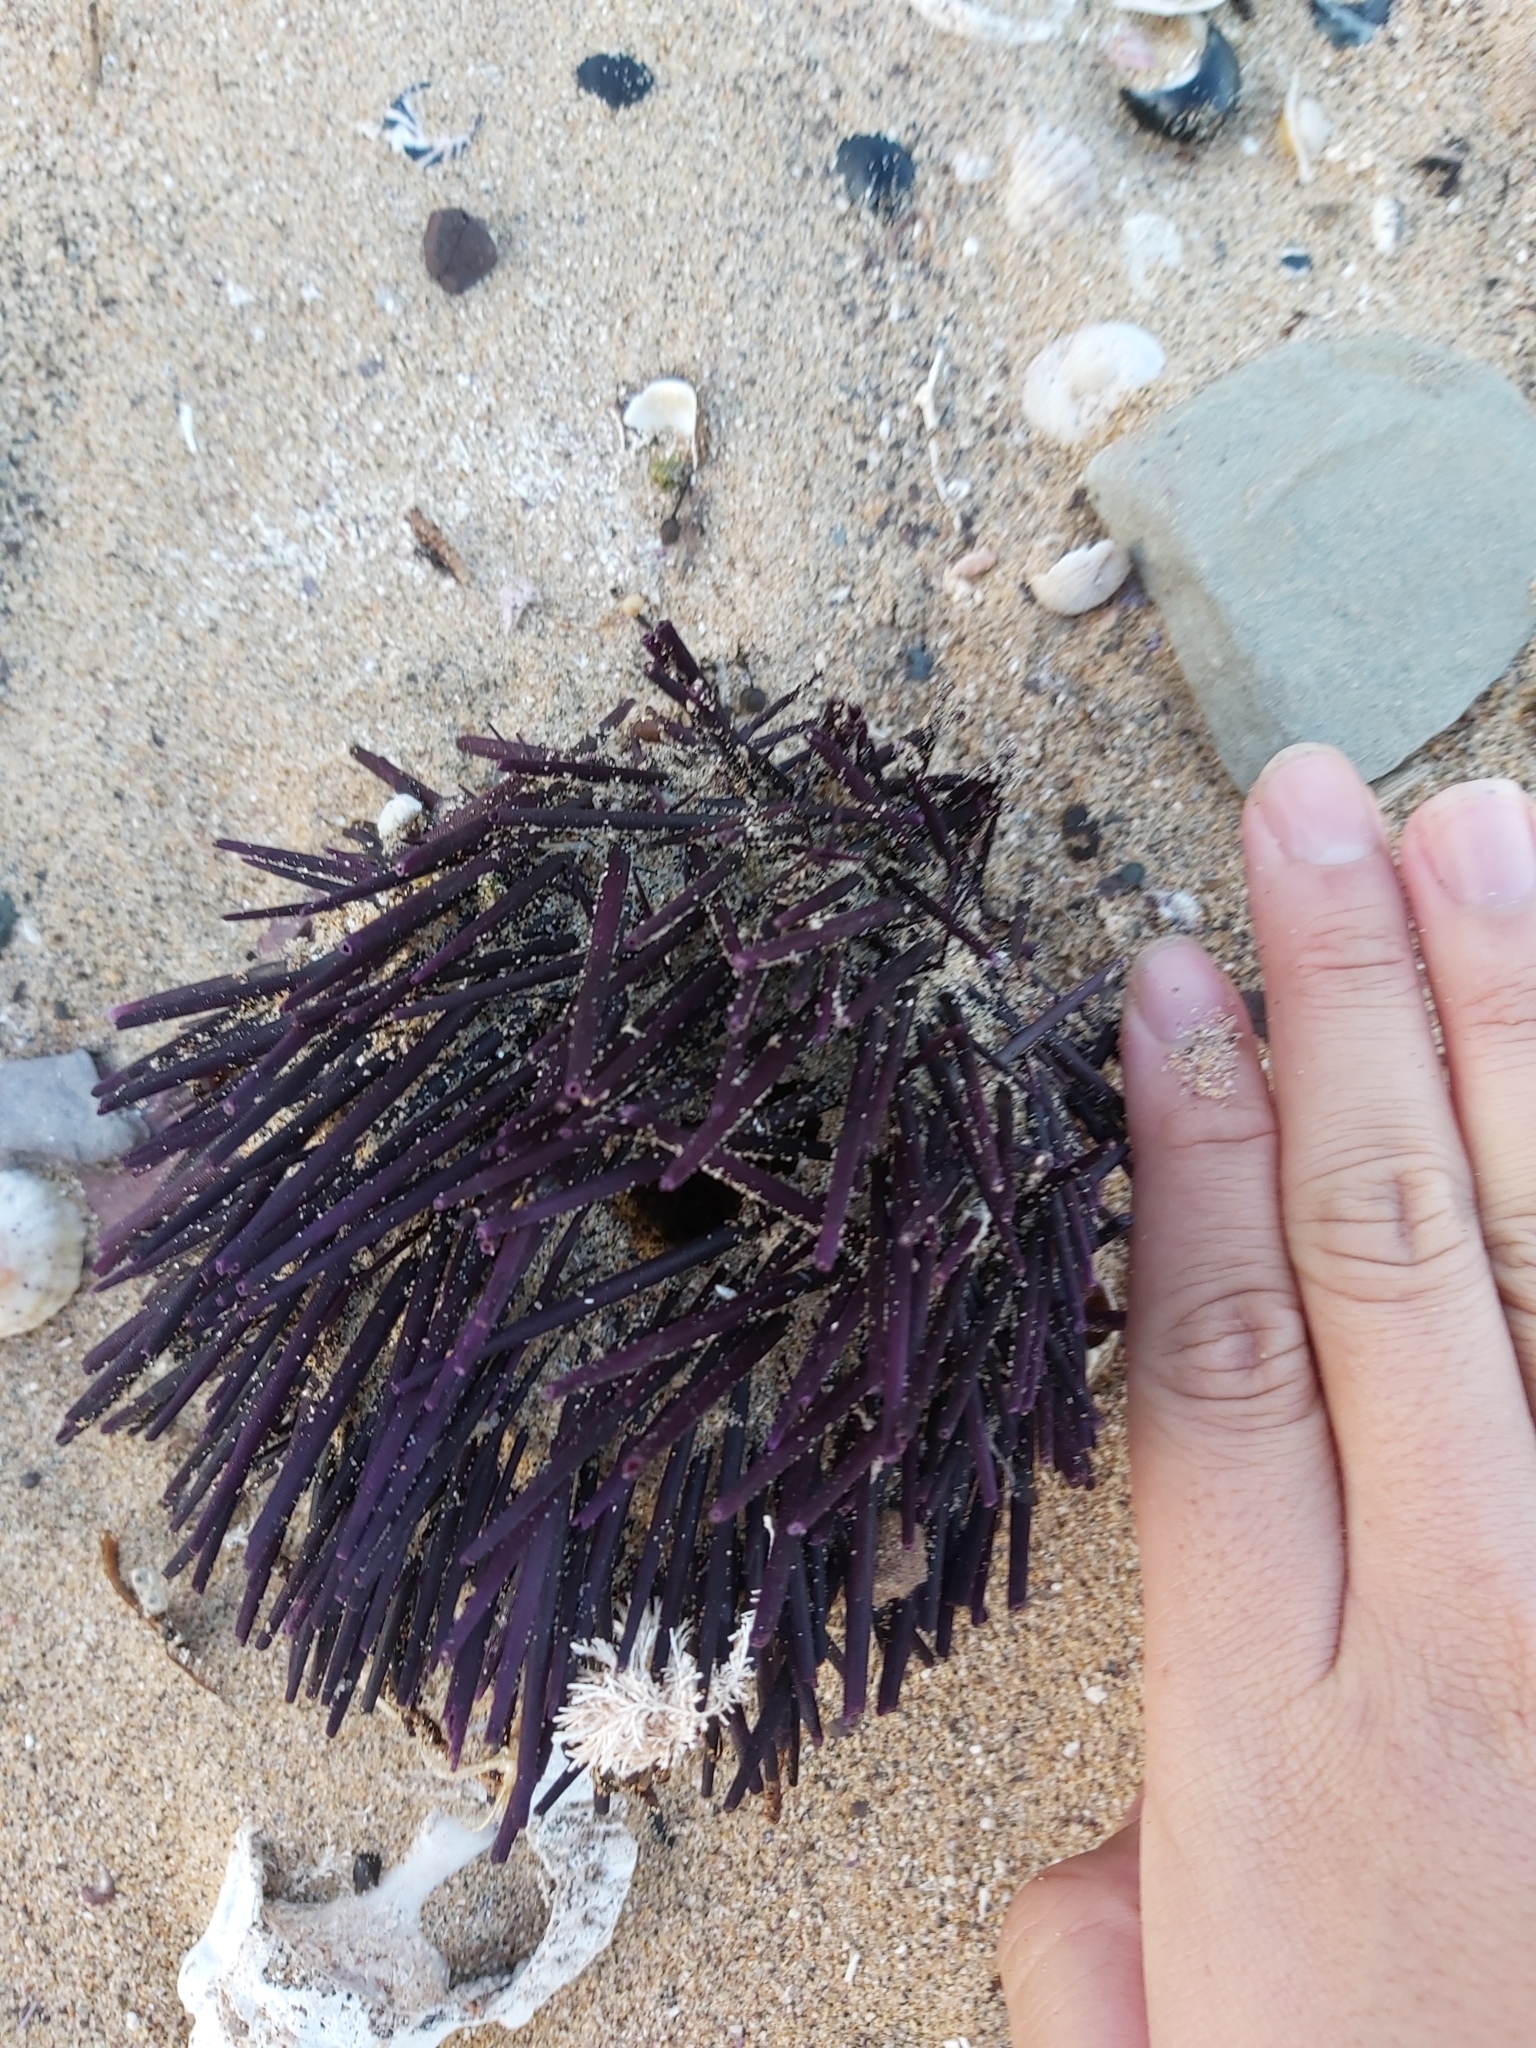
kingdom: Animalia
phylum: Echinodermata
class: Echinoidea
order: Diadematoida
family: Diadematidae
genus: Centrostephanus
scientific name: Centrostephanus rodgersii
